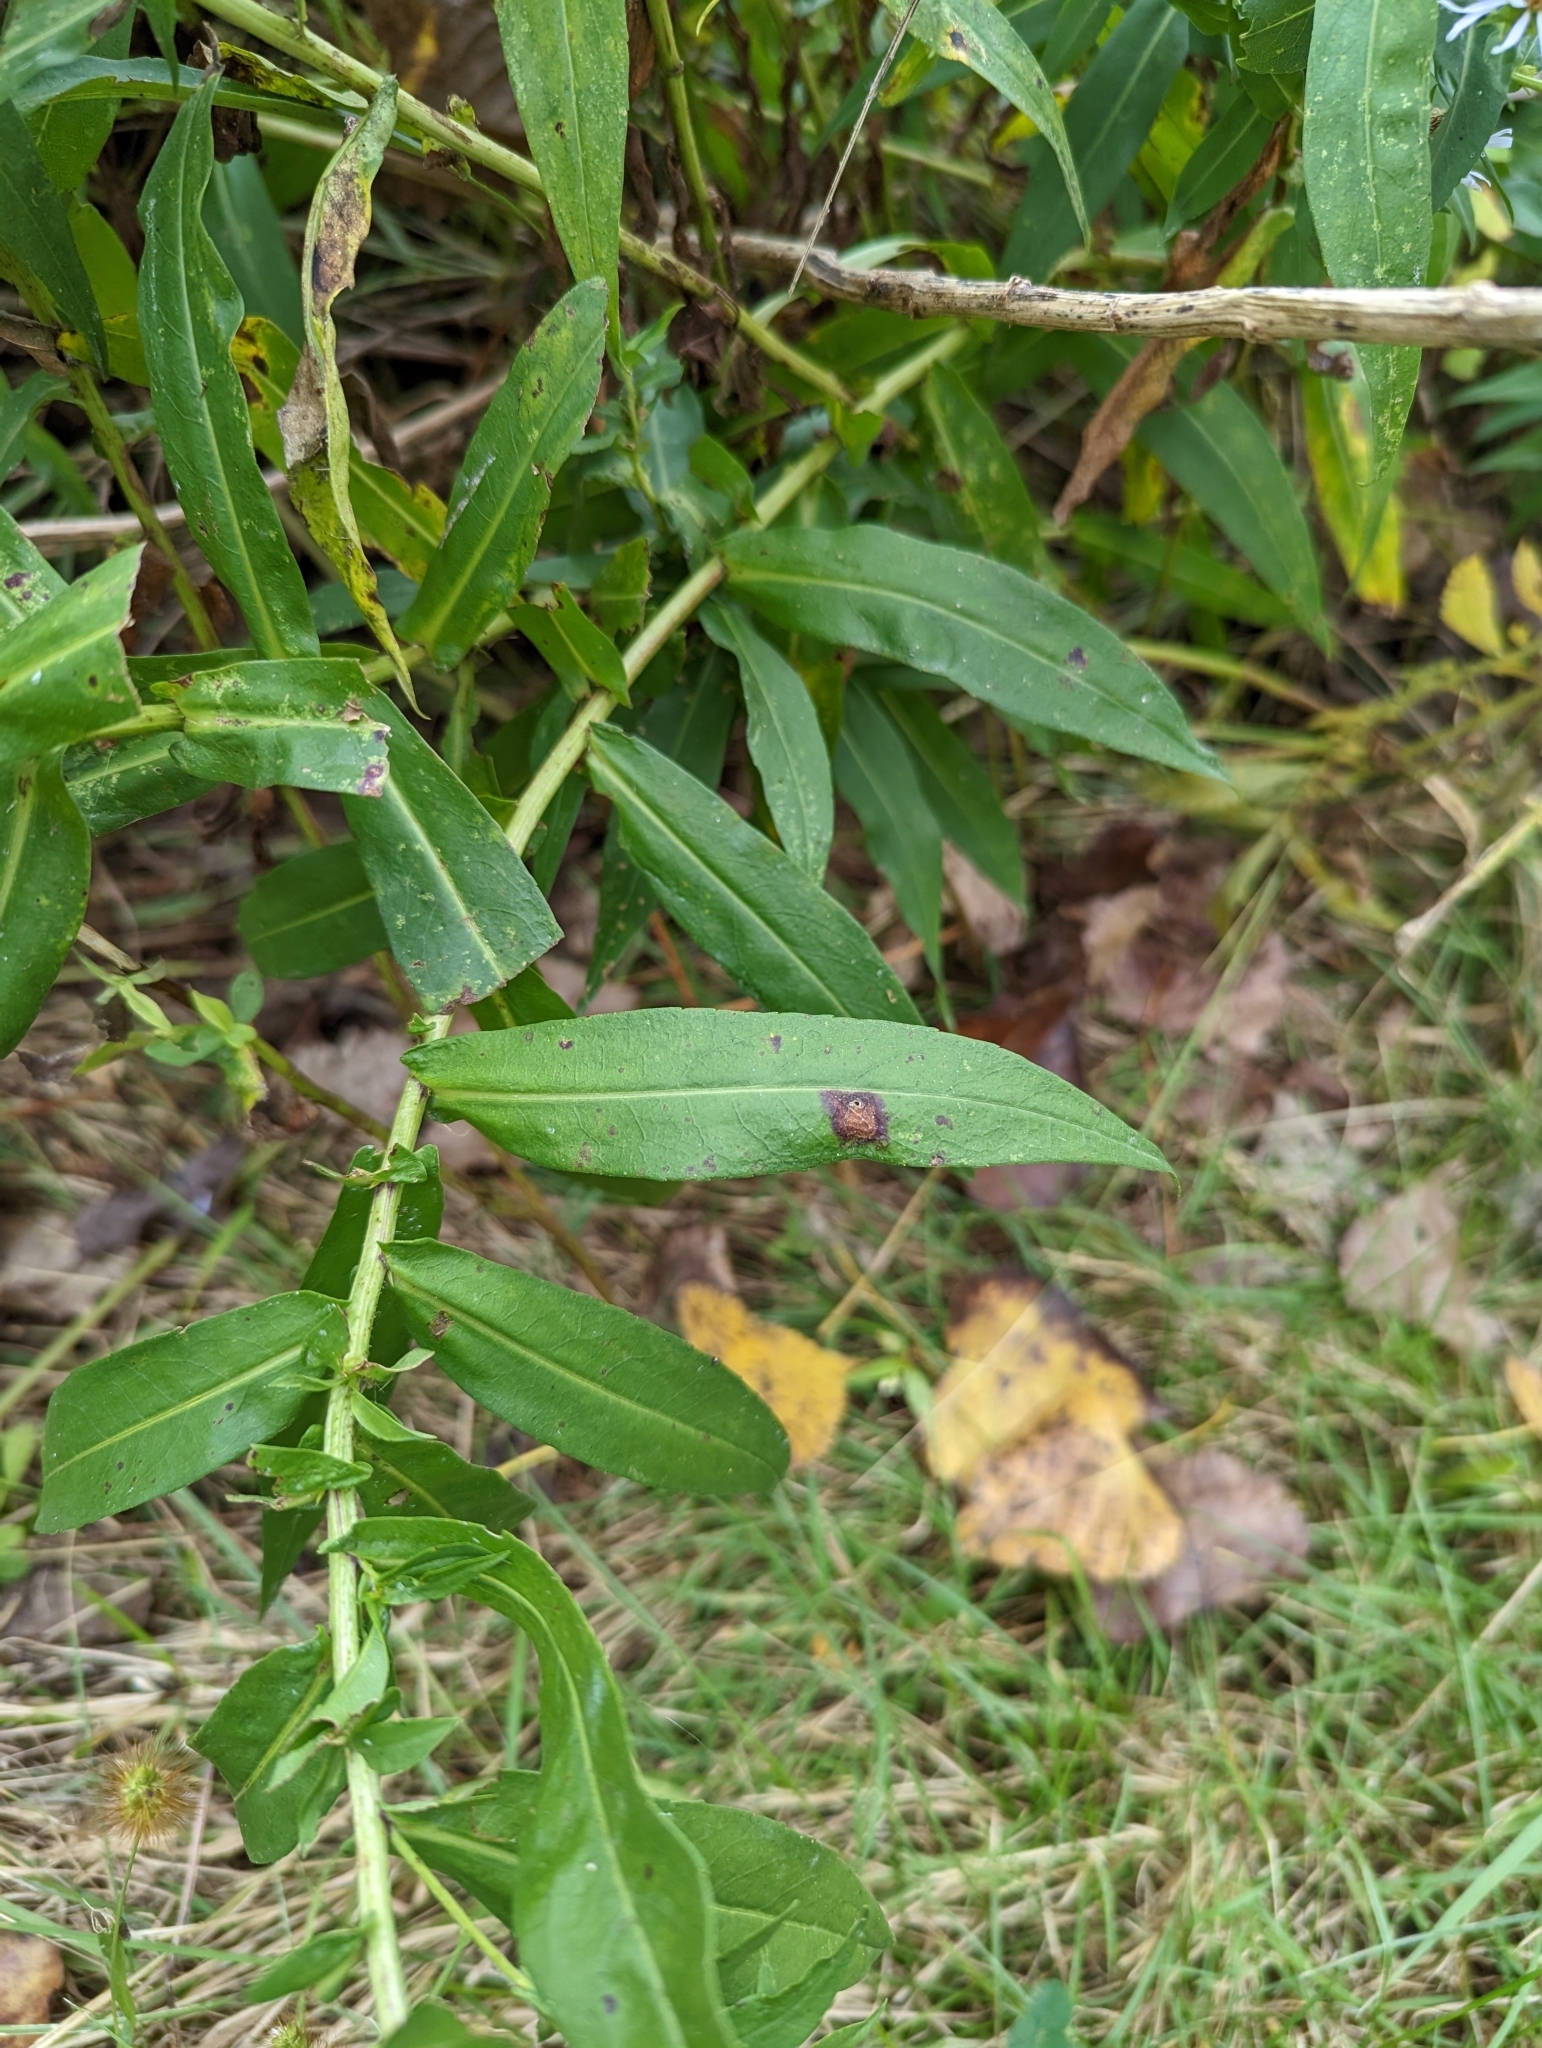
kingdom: Plantae
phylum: Tracheophyta
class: Magnoliopsida
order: Asterales
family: Asteraceae
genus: Symphyotrichum
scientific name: Symphyotrichum firmum
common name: Shining aster
